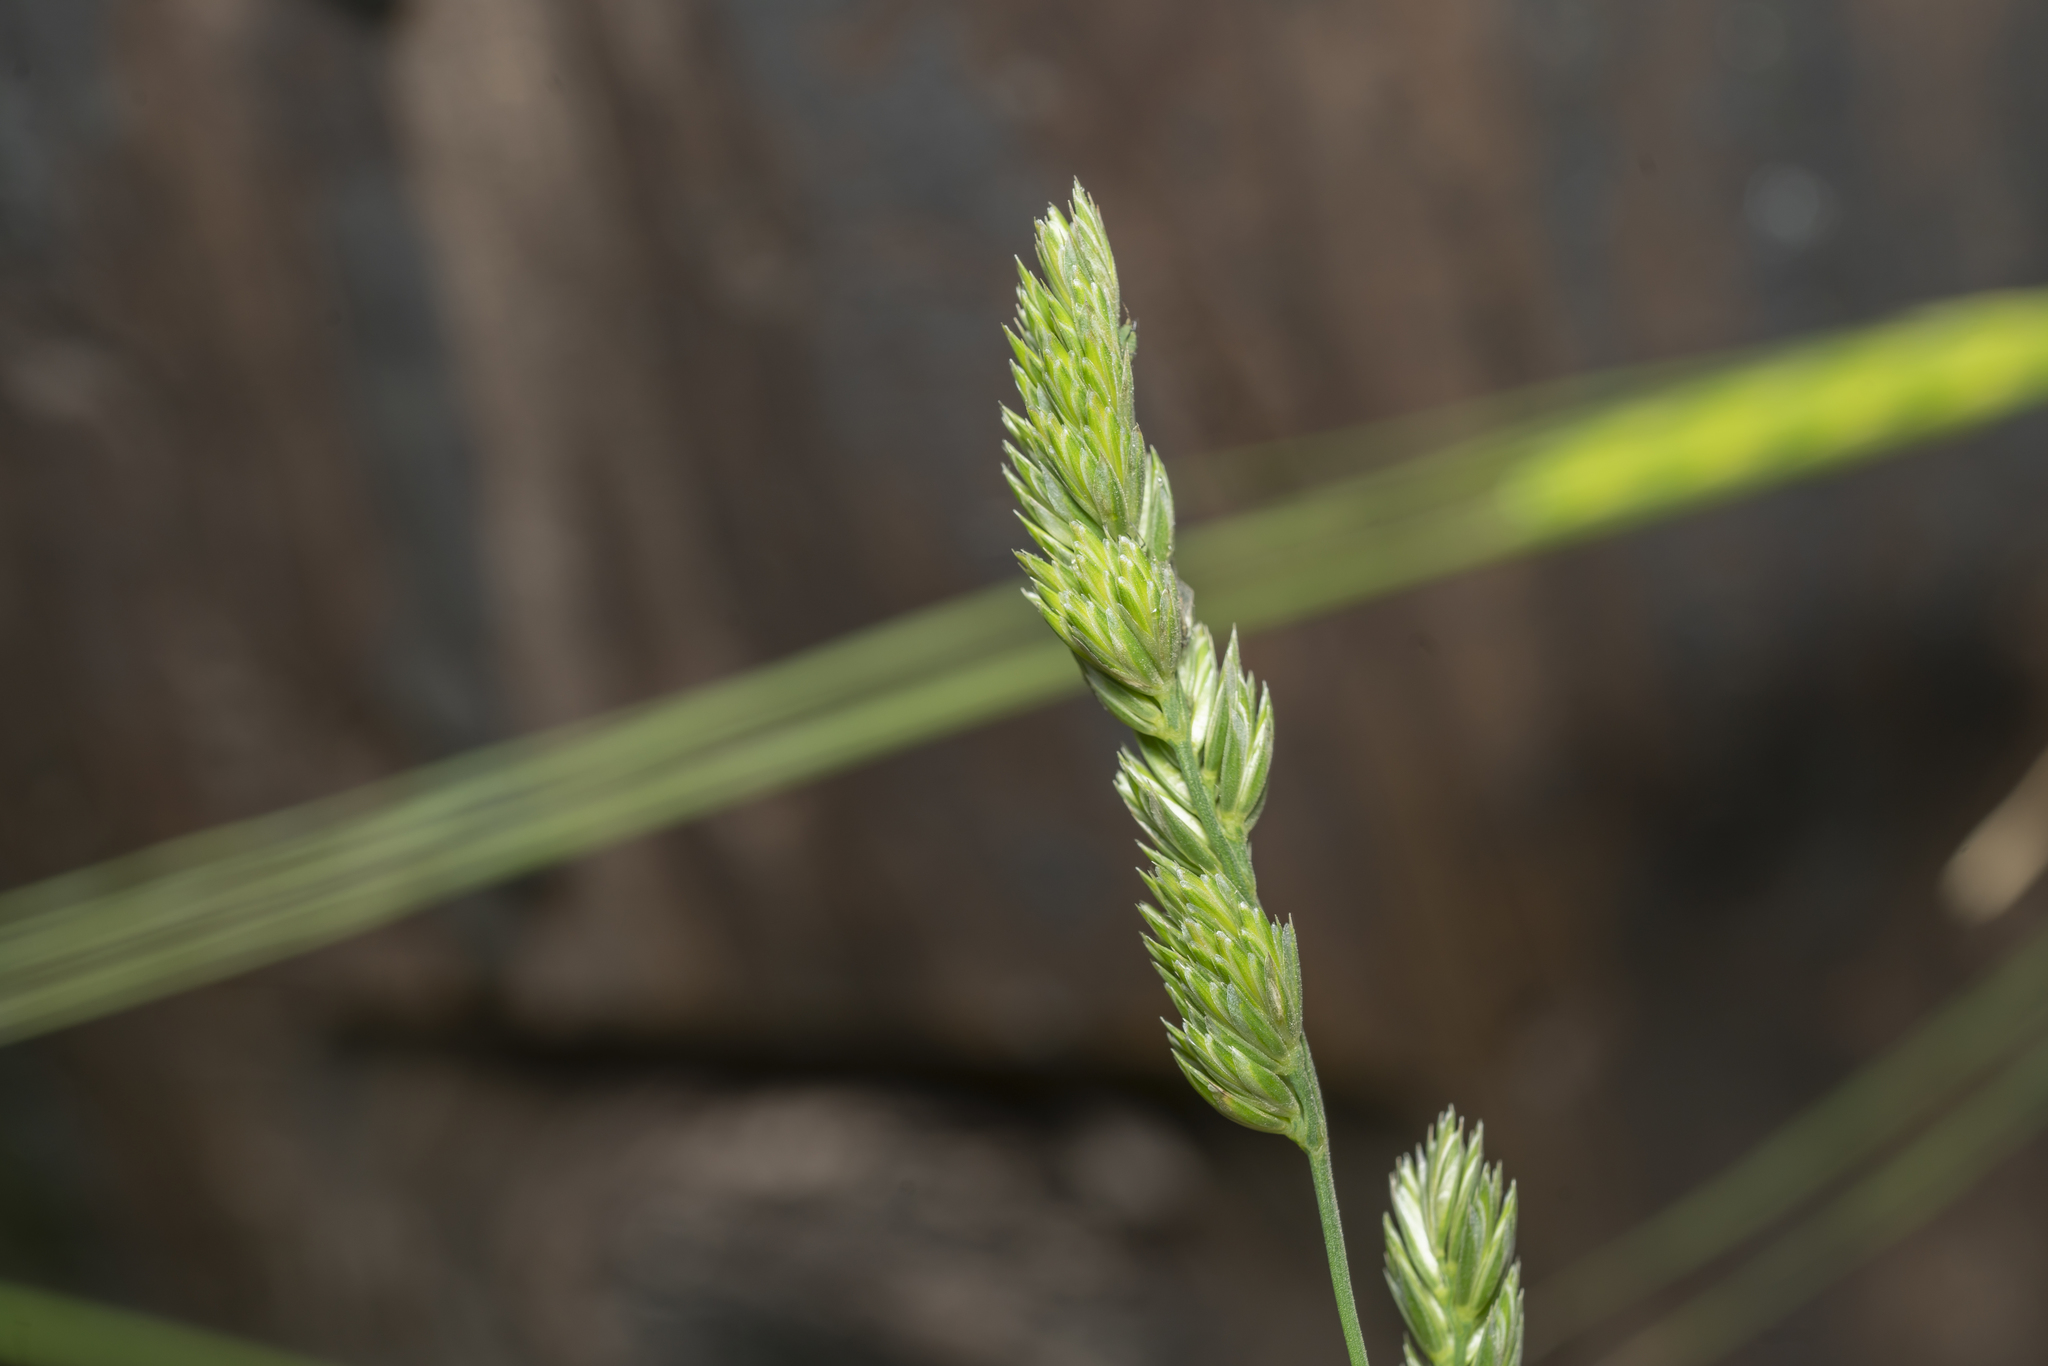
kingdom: Plantae
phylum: Tracheophyta
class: Liliopsida
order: Poales
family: Poaceae
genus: Dactylis
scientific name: Dactylis glomerata
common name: Orchardgrass
